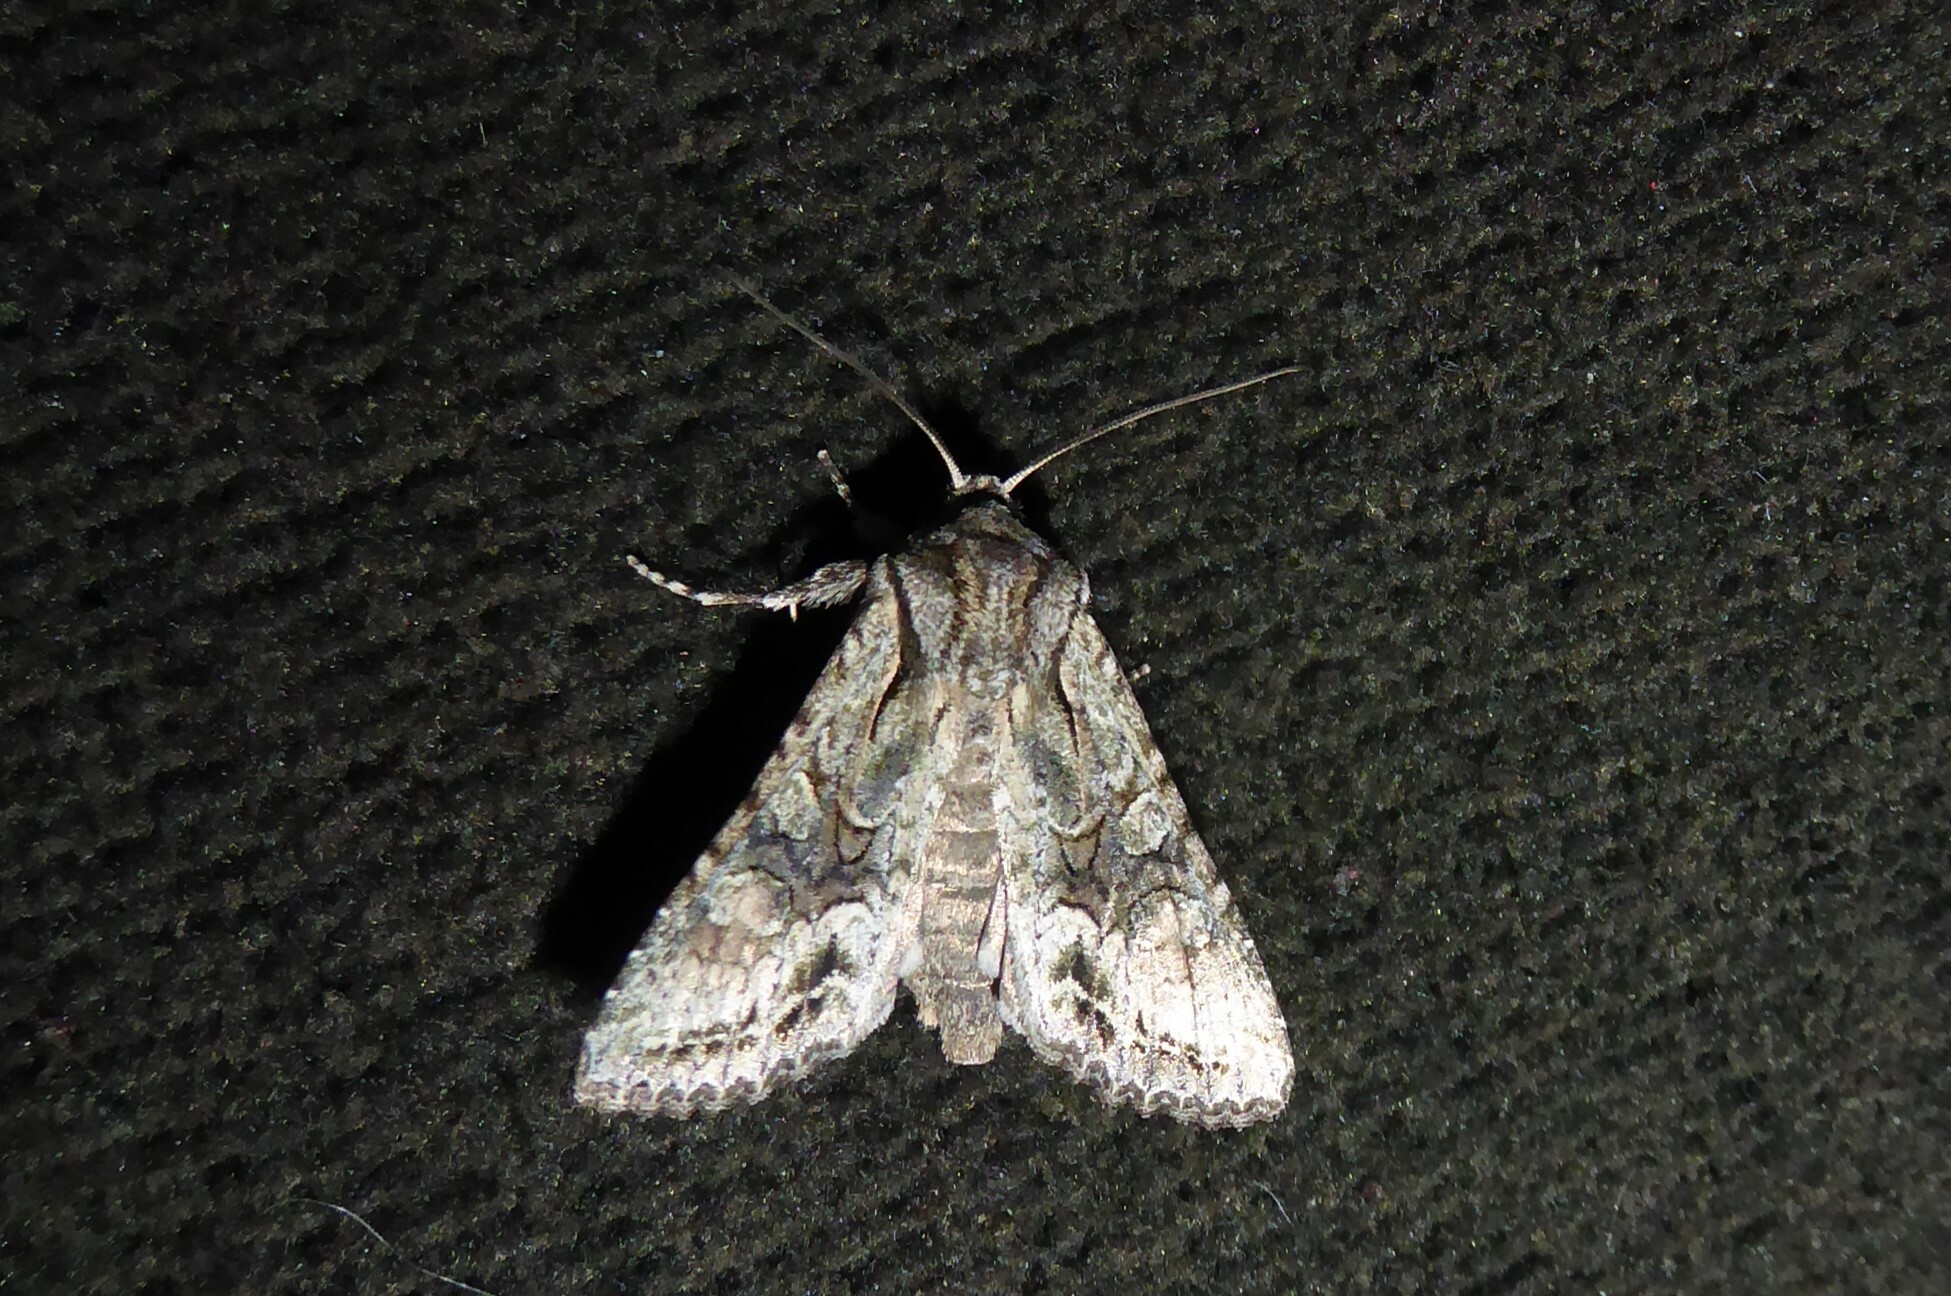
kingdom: Animalia
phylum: Arthropoda
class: Insecta
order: Lepidoptera
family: Noctuidae
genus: Ichneutica
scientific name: Ichneutica mutans
